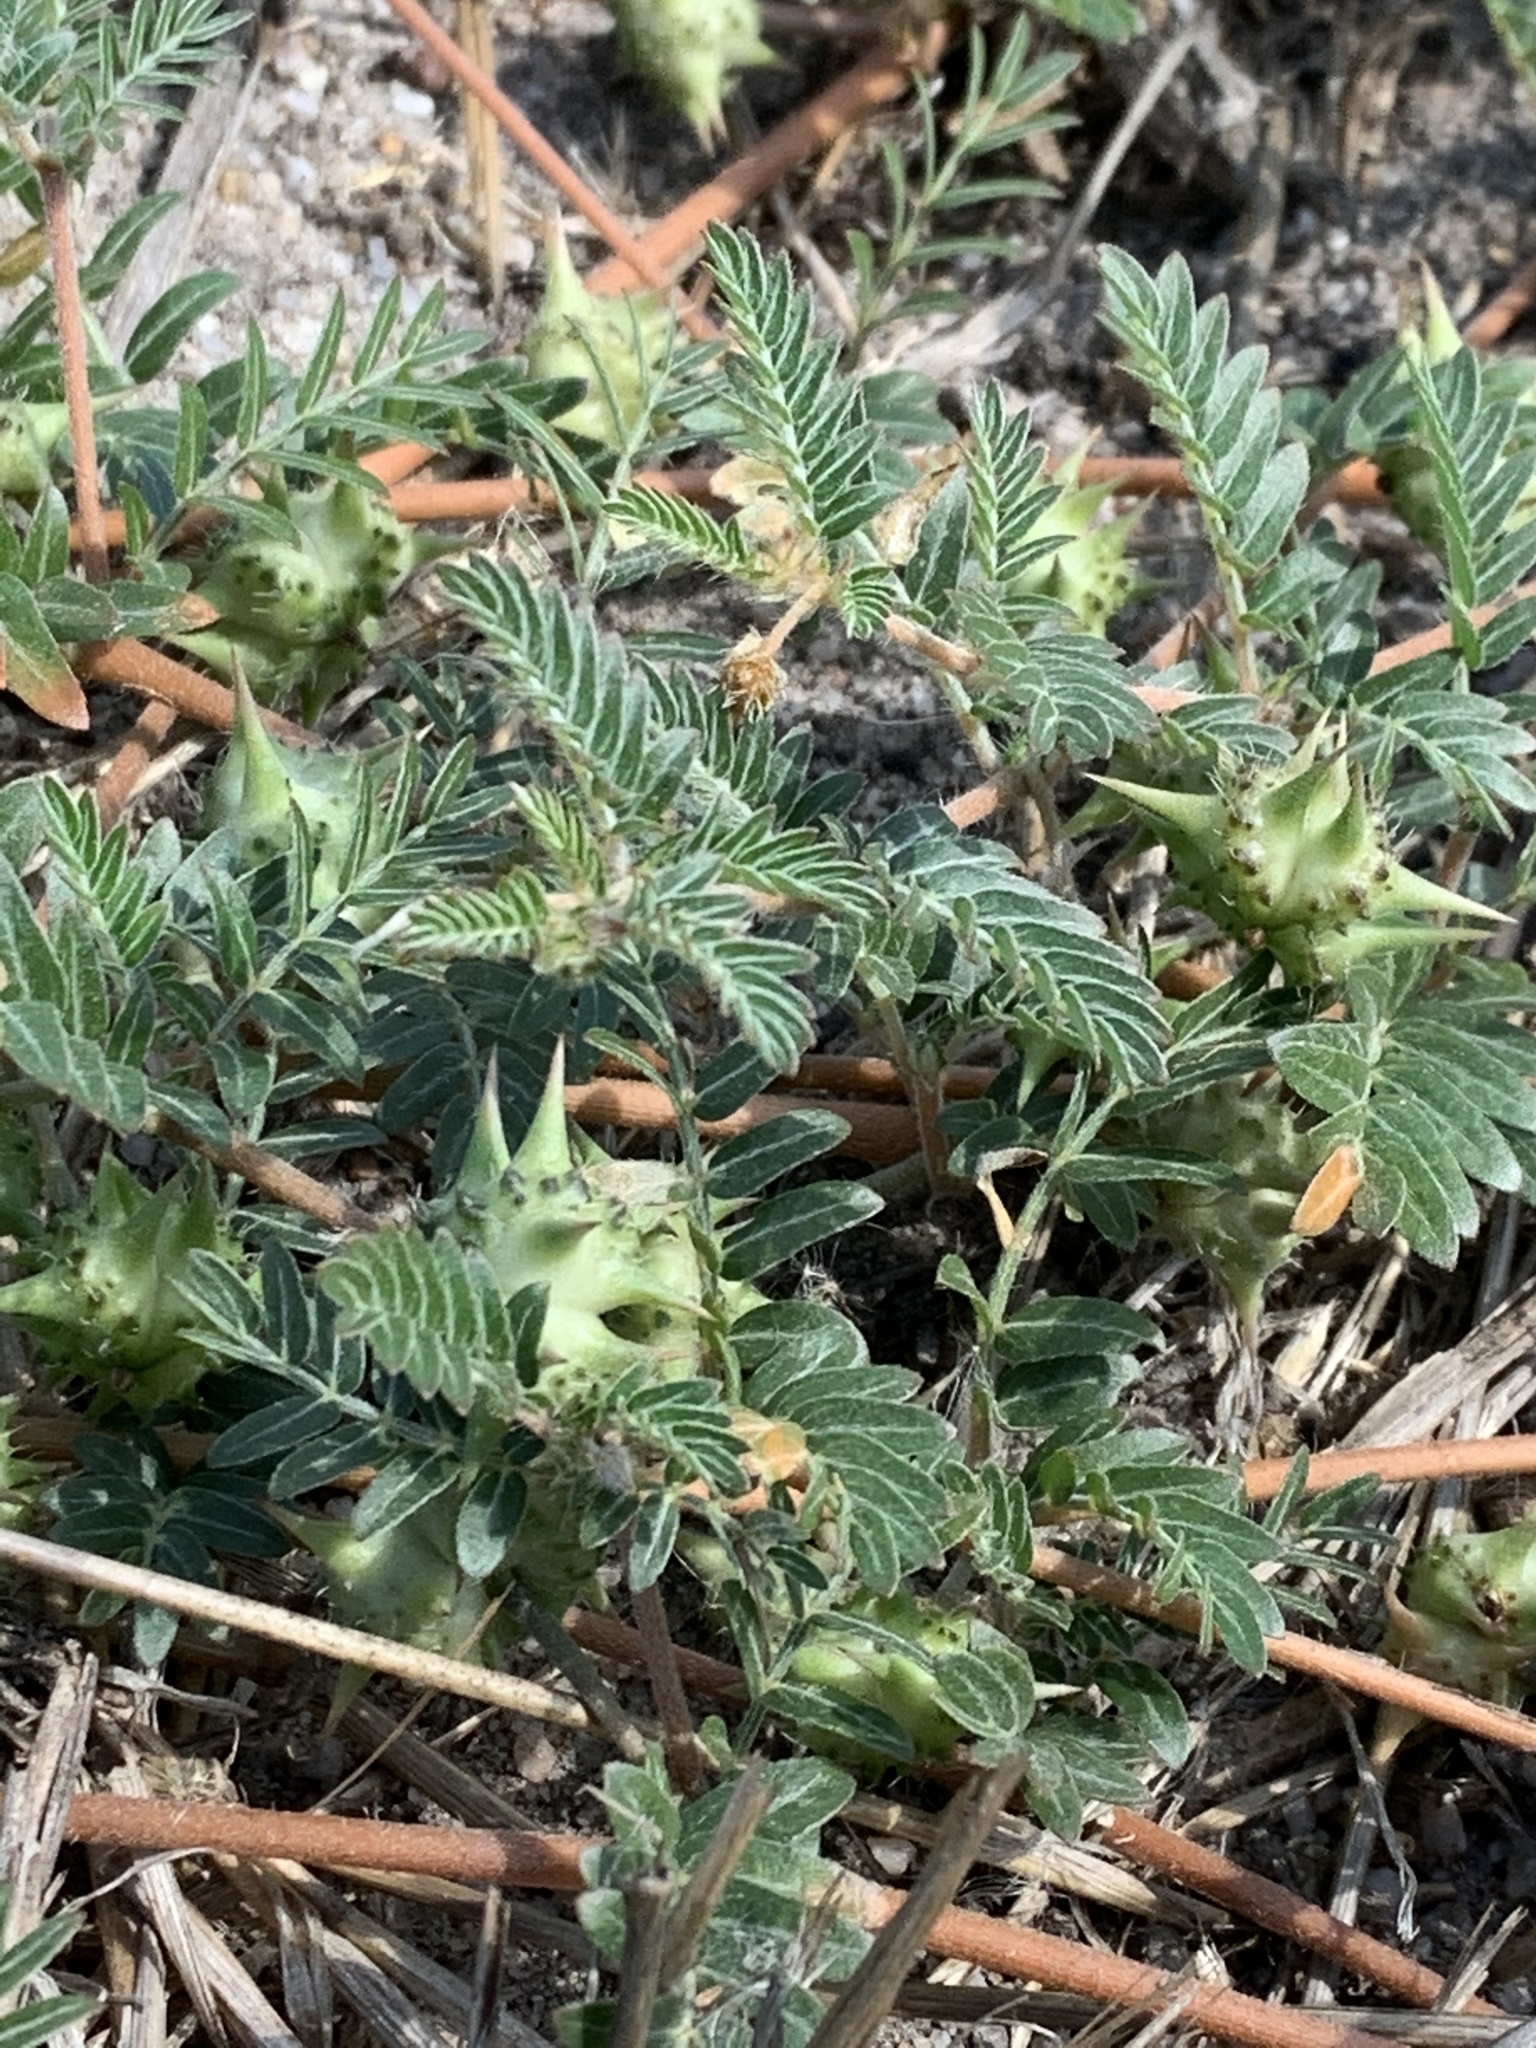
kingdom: Plantae
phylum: Tracheophyta
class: Magnoliopsida
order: Zygophyllales
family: Zygophyllaceae
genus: Tribulus
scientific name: Tribulus terrestris
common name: Puncturevine
